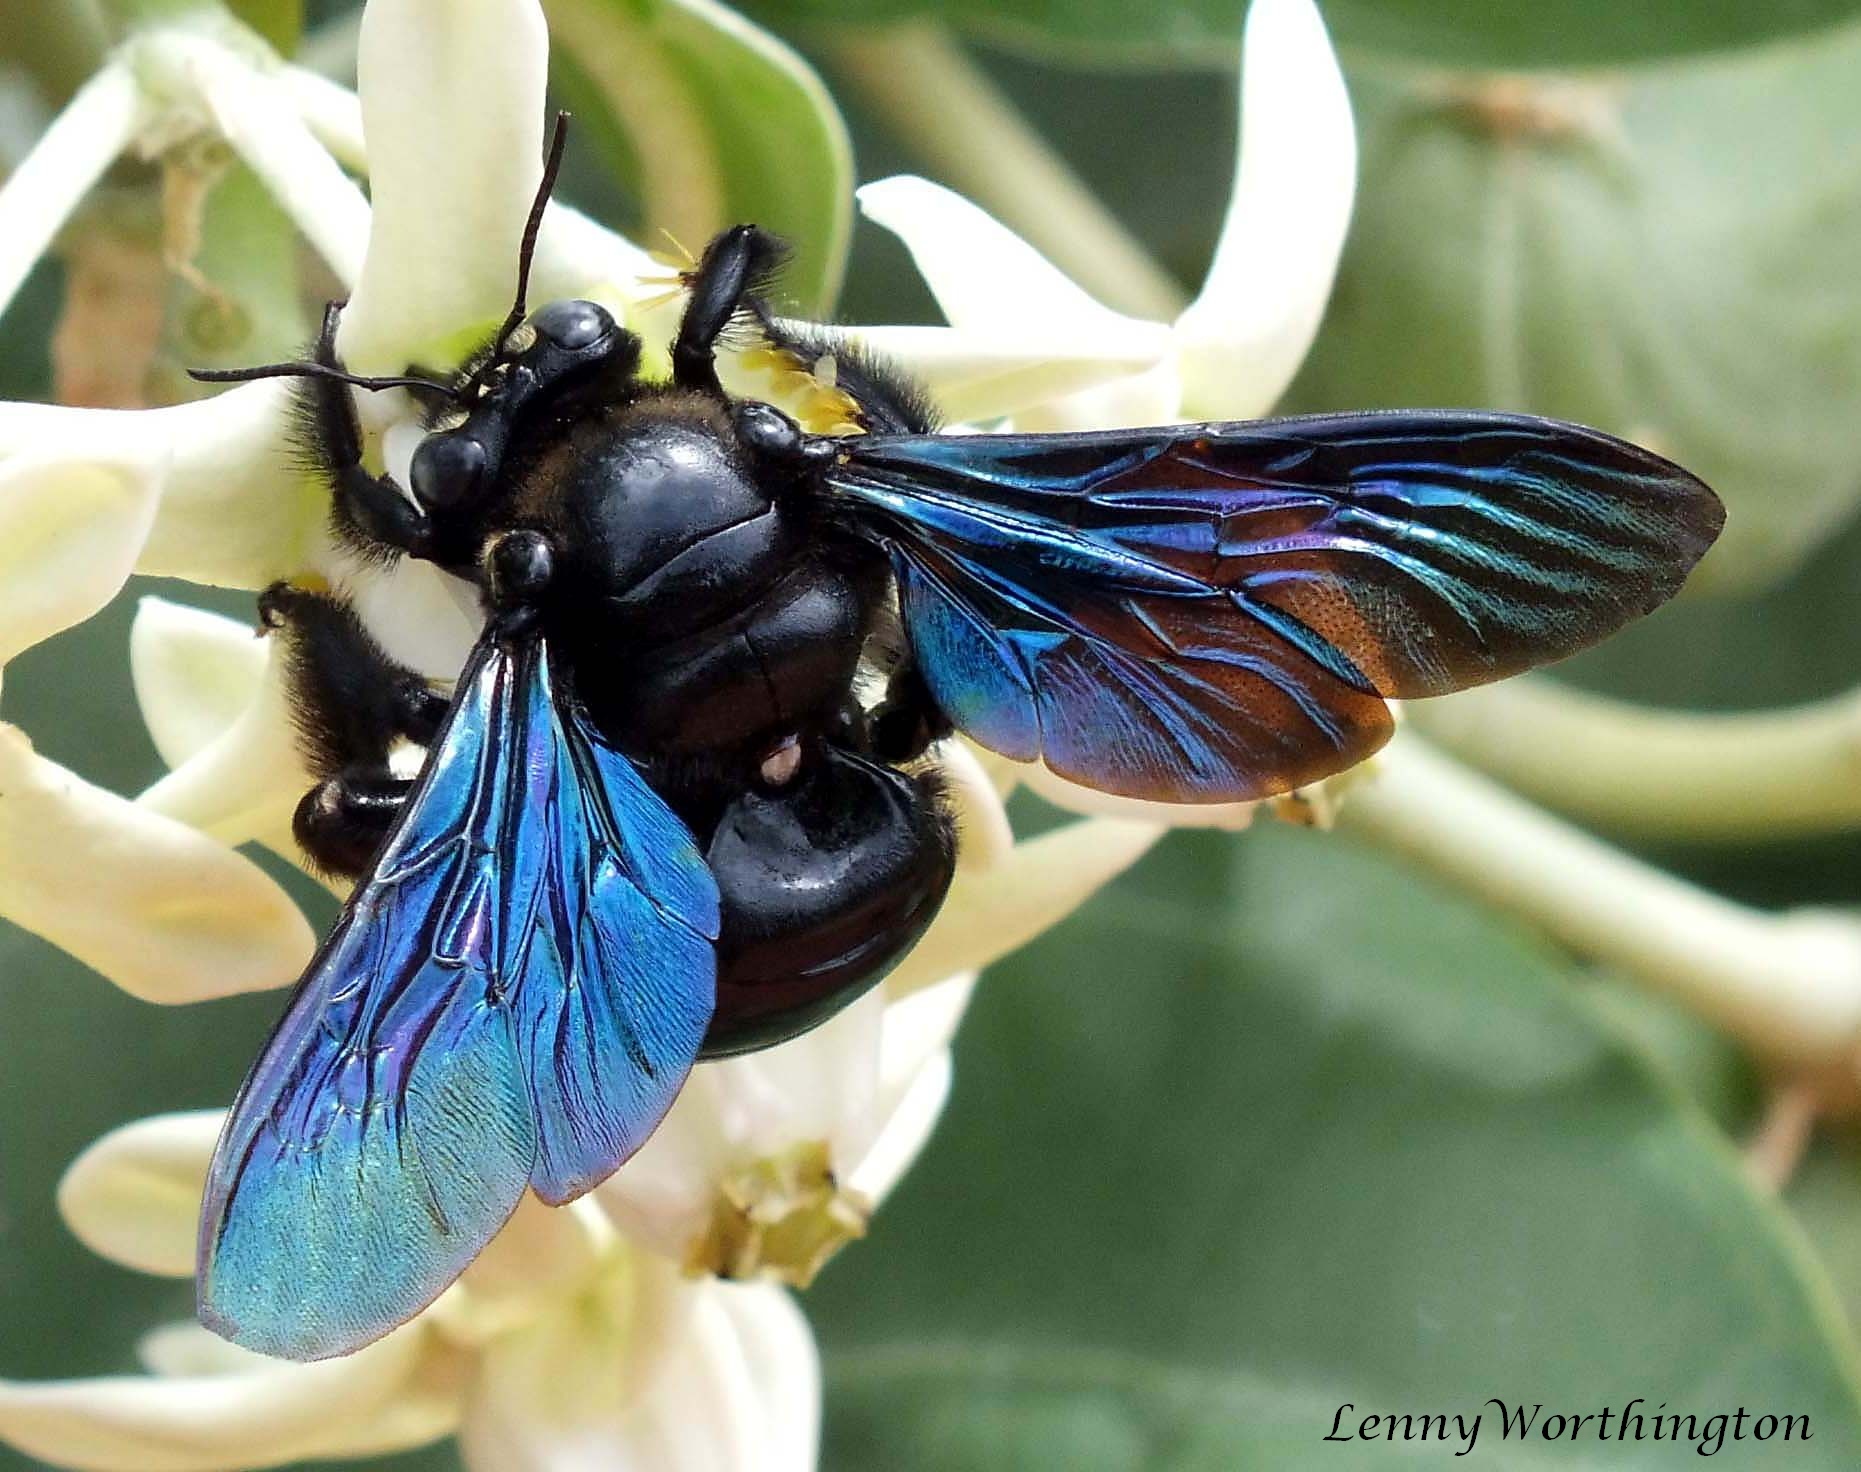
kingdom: Animalia
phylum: Arthropoda
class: Insecta
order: Hymenoptera
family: Apidae
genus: Xylocopa
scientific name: Xylocopa nasalis
